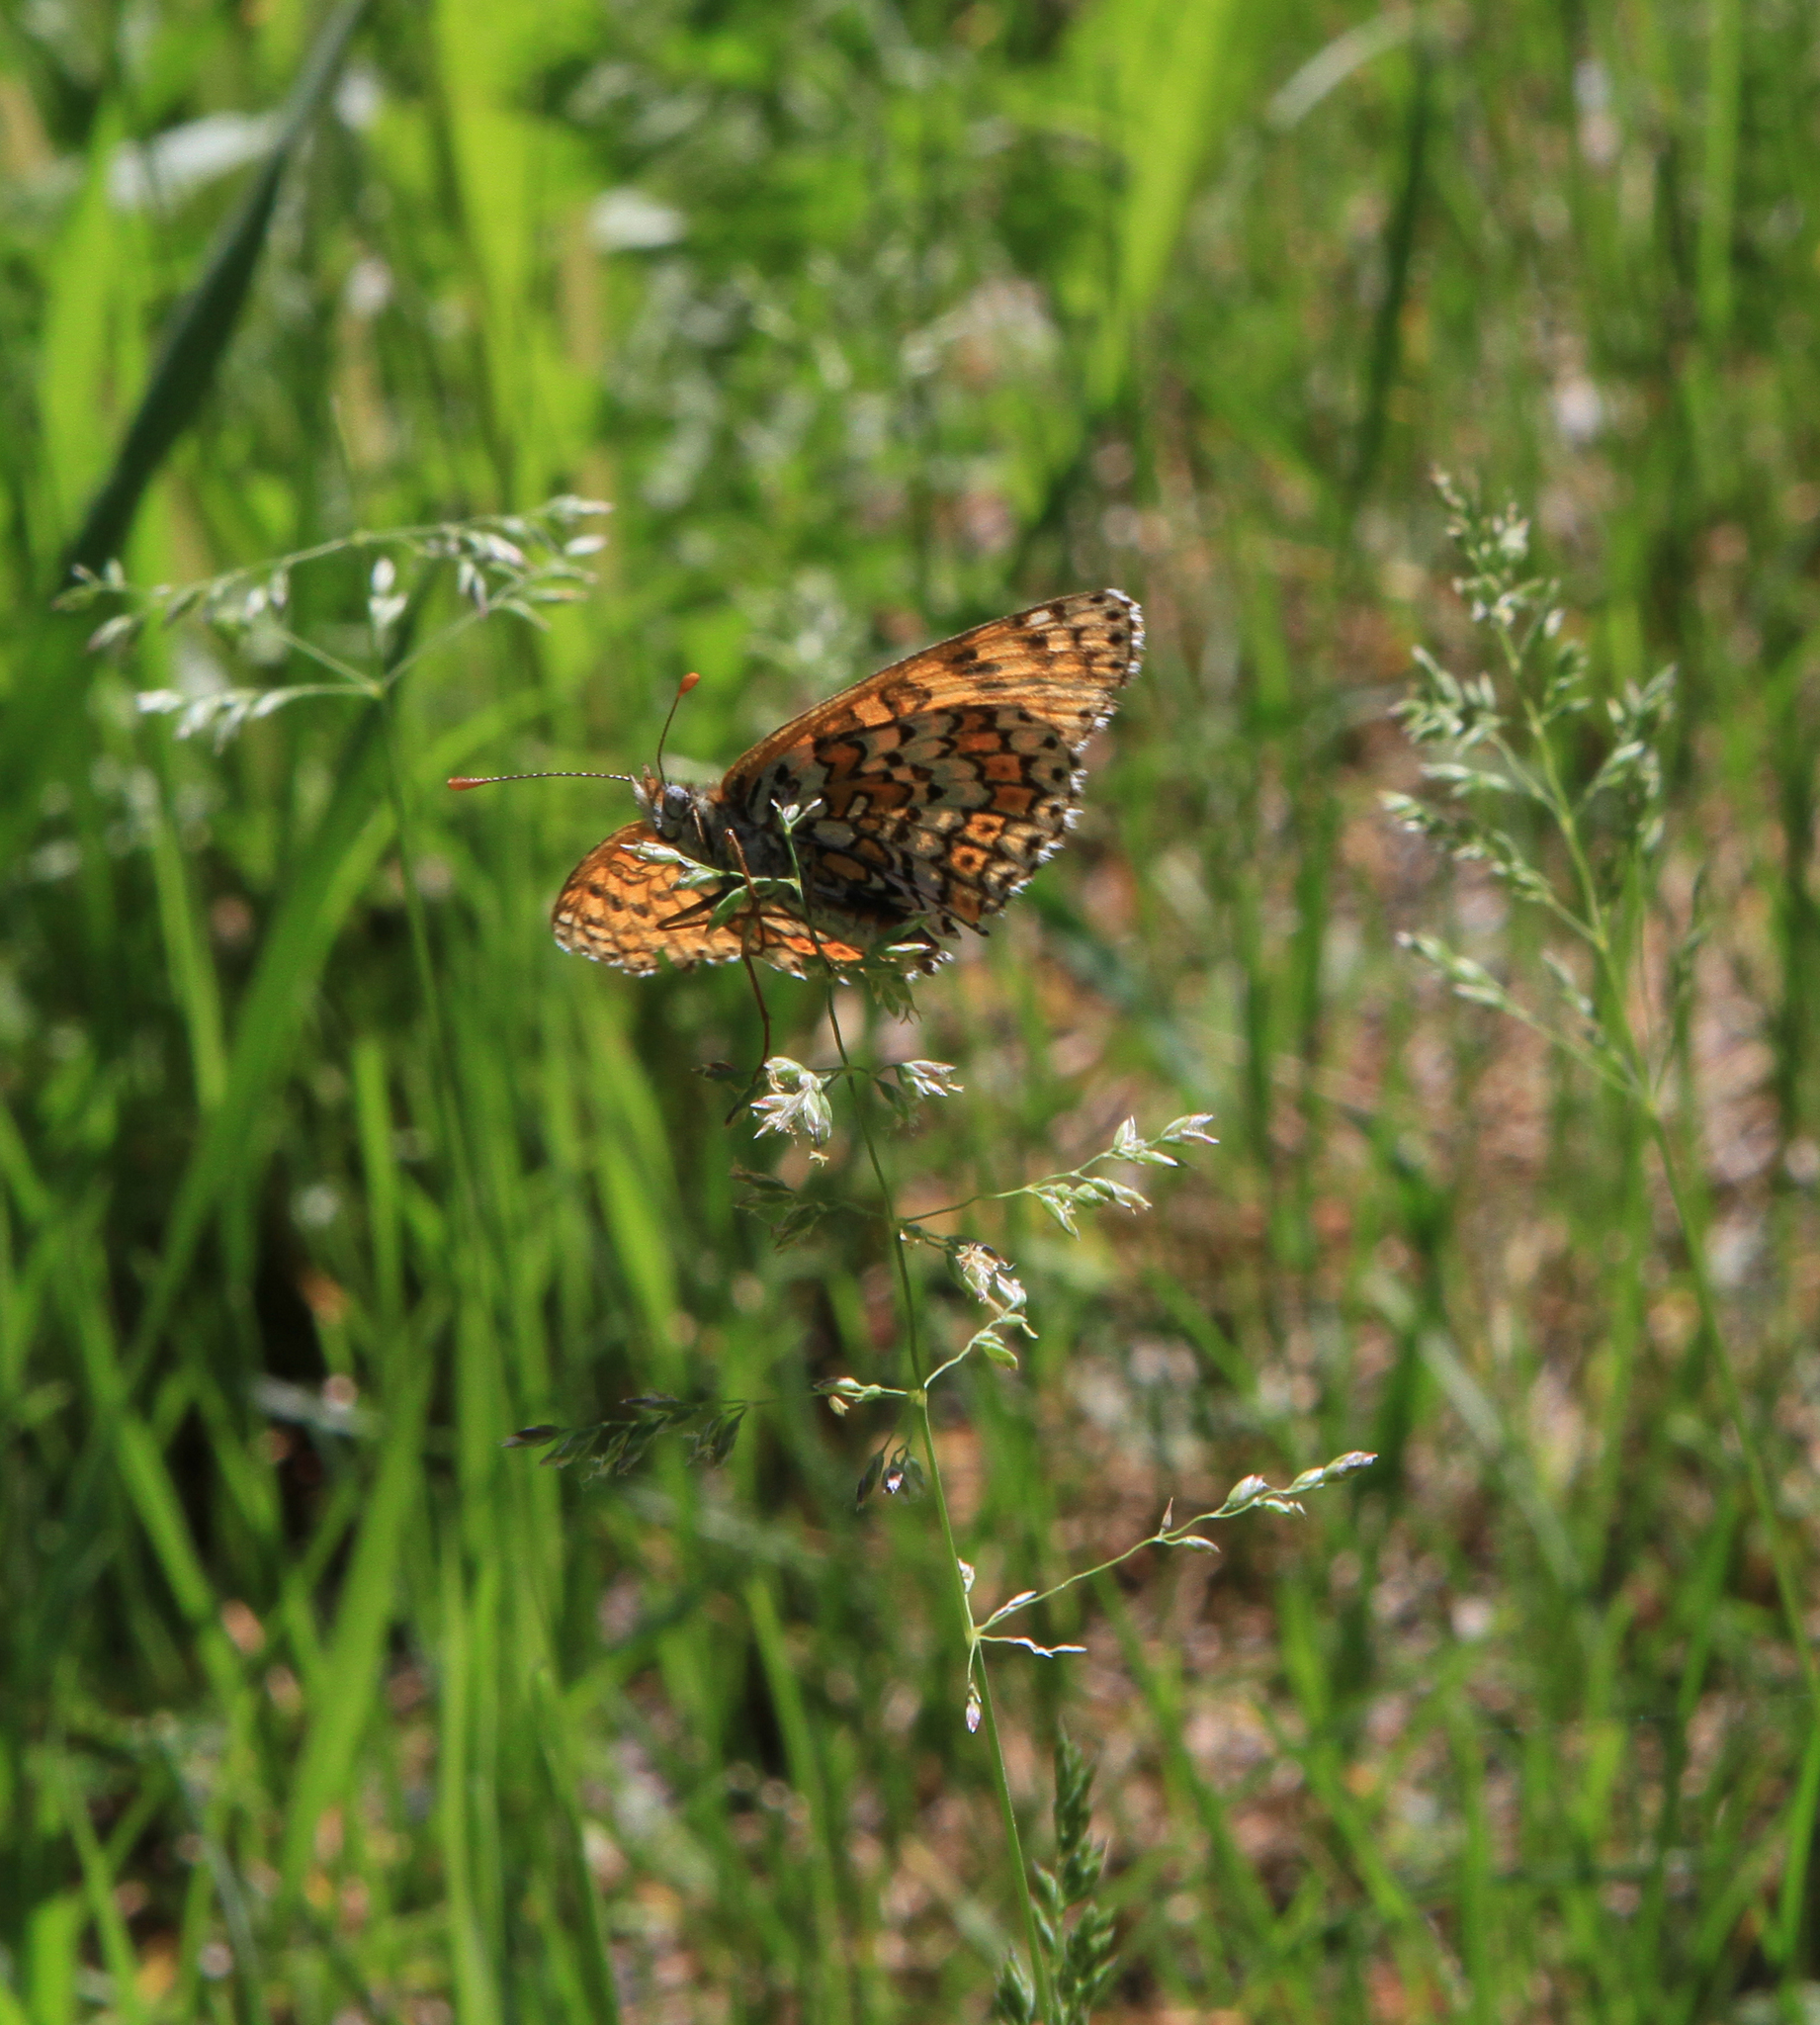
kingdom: Animalia
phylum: Arthropoda
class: Insecta
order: Lepidoptera
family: Nymphalidae
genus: Melitaea
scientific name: Melitaea cinxia
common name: Glanville fritillary
